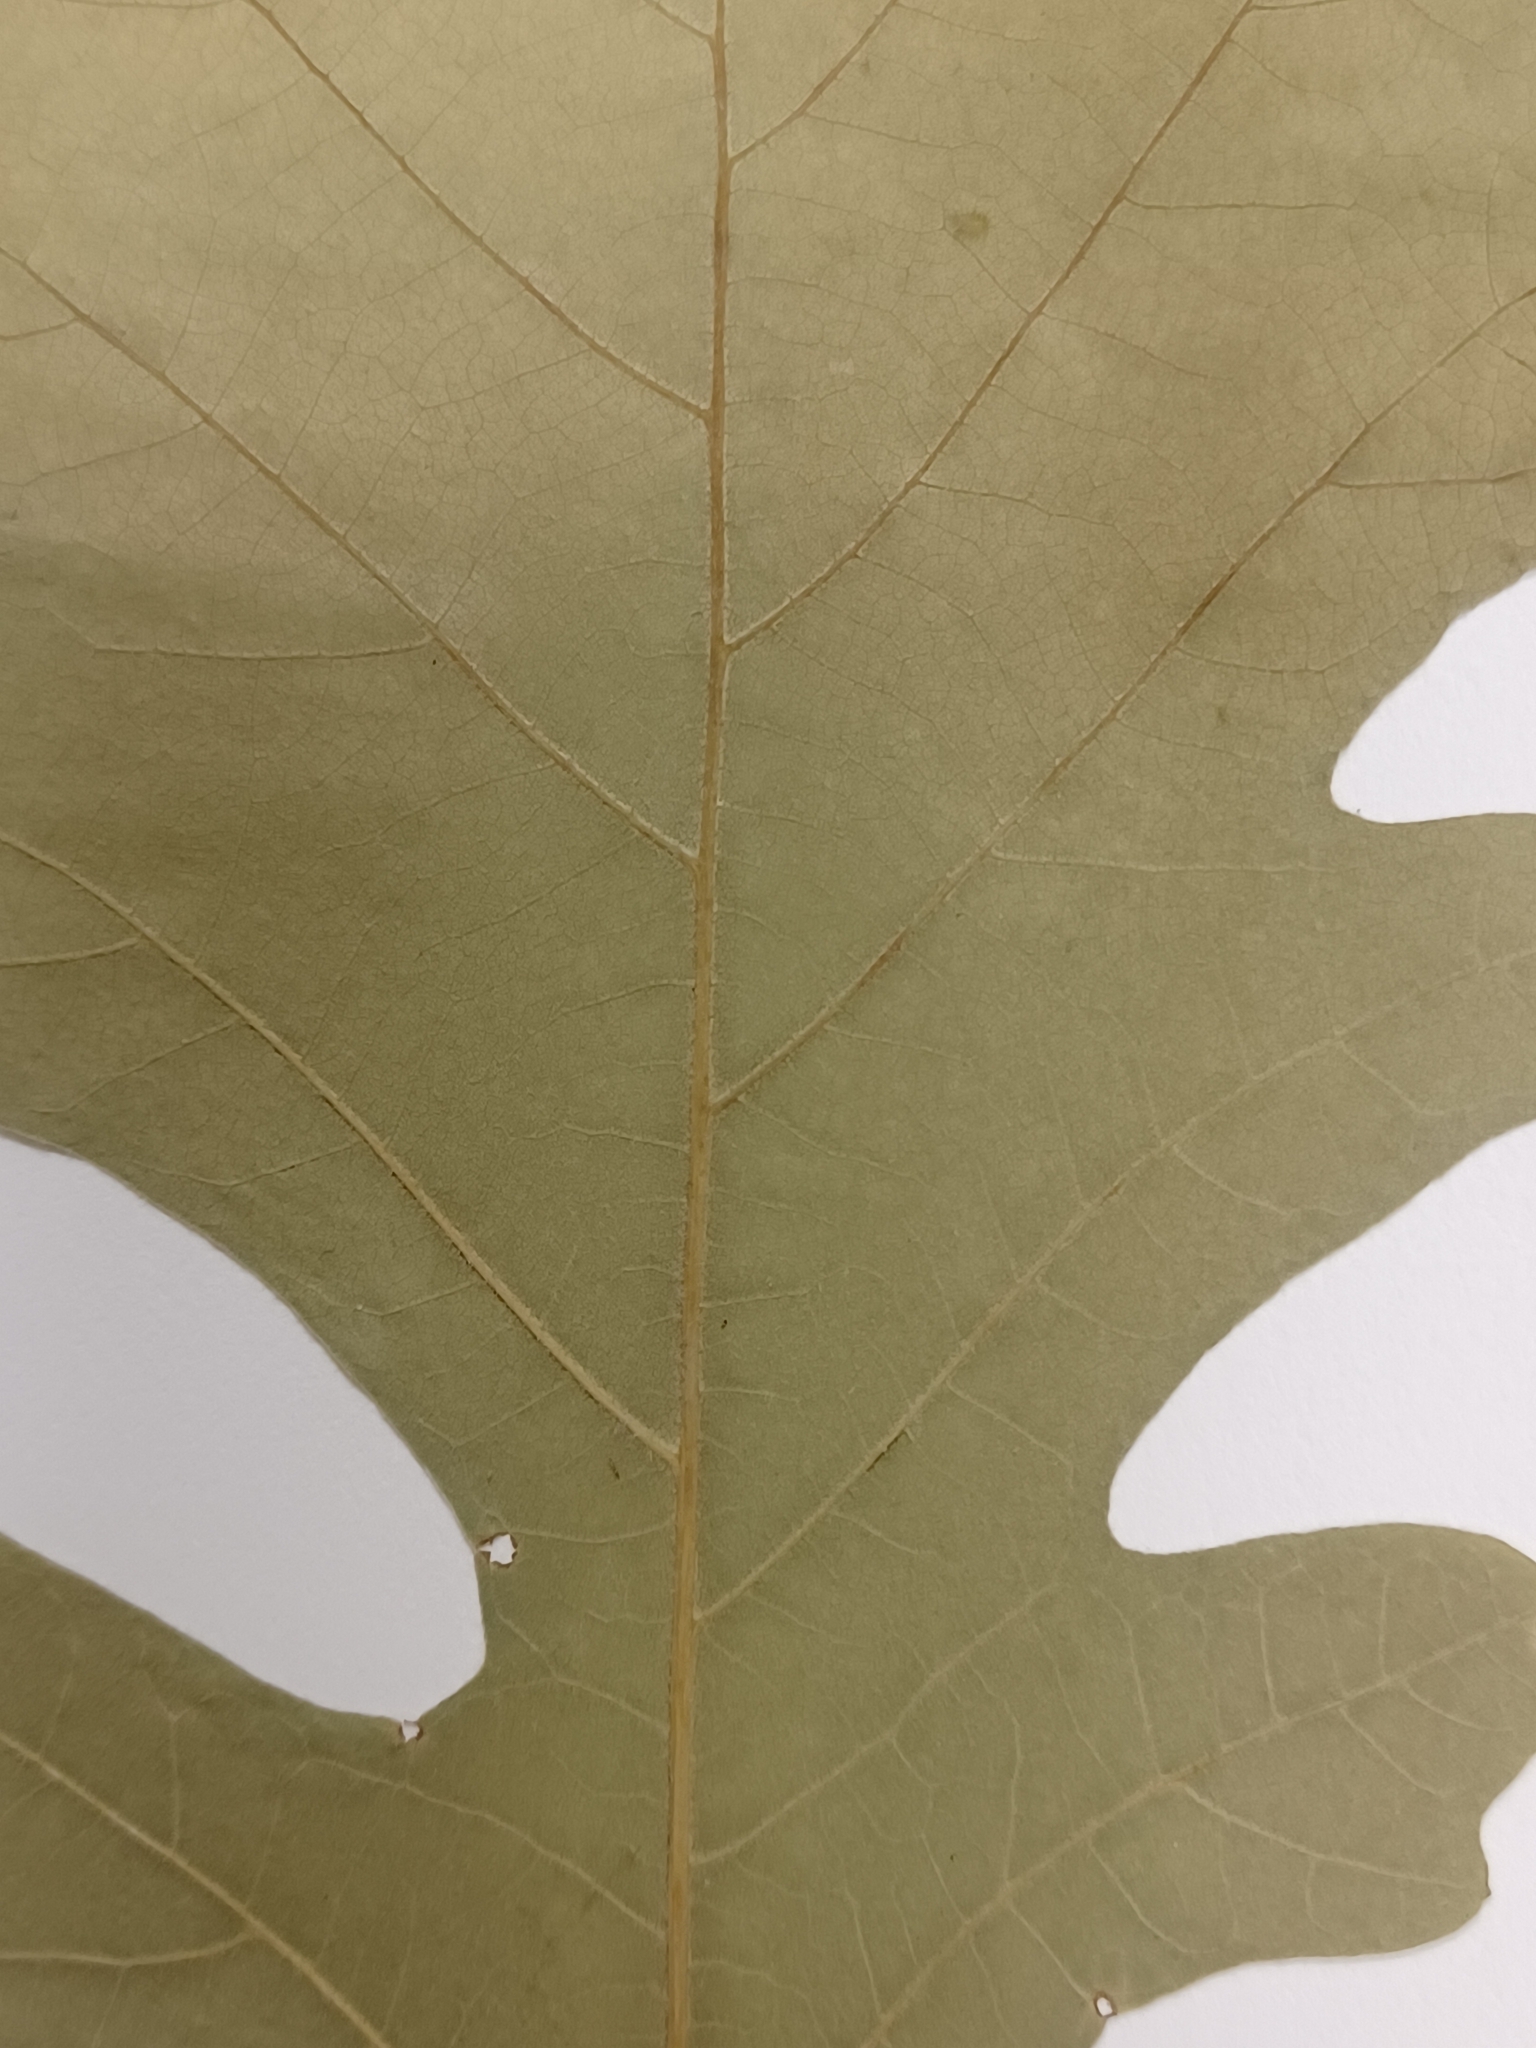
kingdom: Plantae
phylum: Tracheophyta
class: Magnoliopsida
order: Fagales
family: Fagaceae
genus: Quercus
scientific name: Quercus macrocarpa
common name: Bur oak
